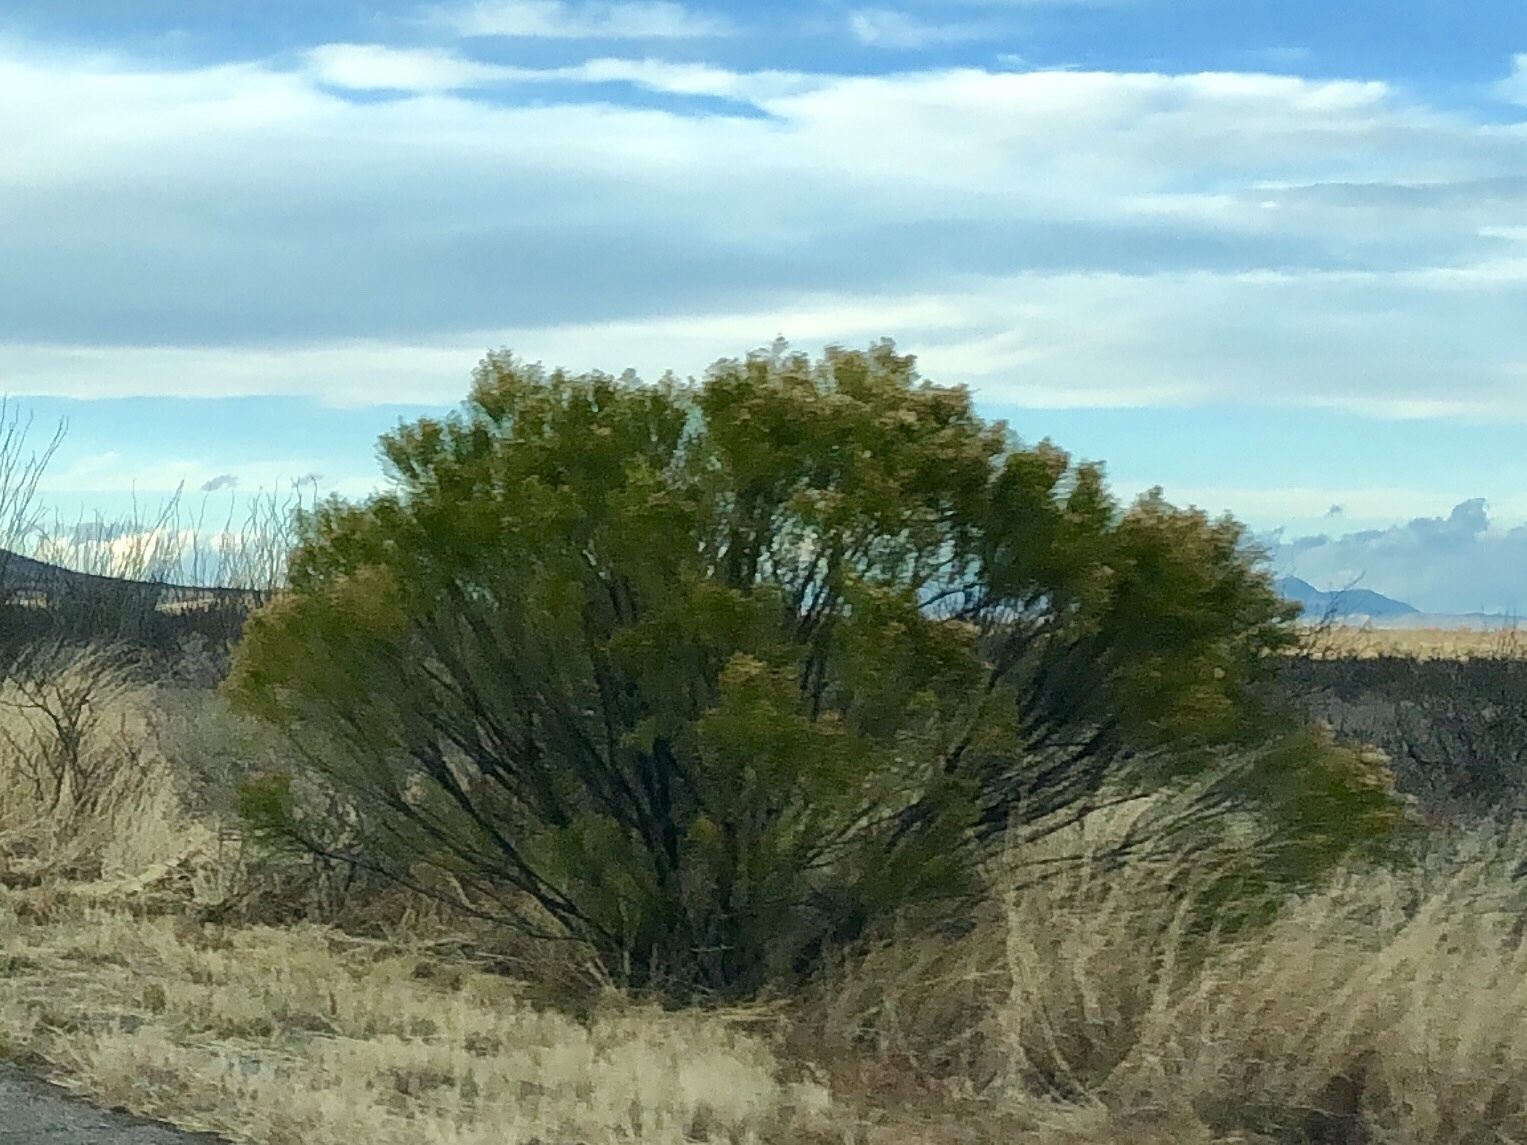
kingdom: Plantae
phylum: Tracheophyta
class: Magnoliopsida
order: Asterales
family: Asteraceae
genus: Baccharis
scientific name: Baccharis sarothroides
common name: Desert-broom
